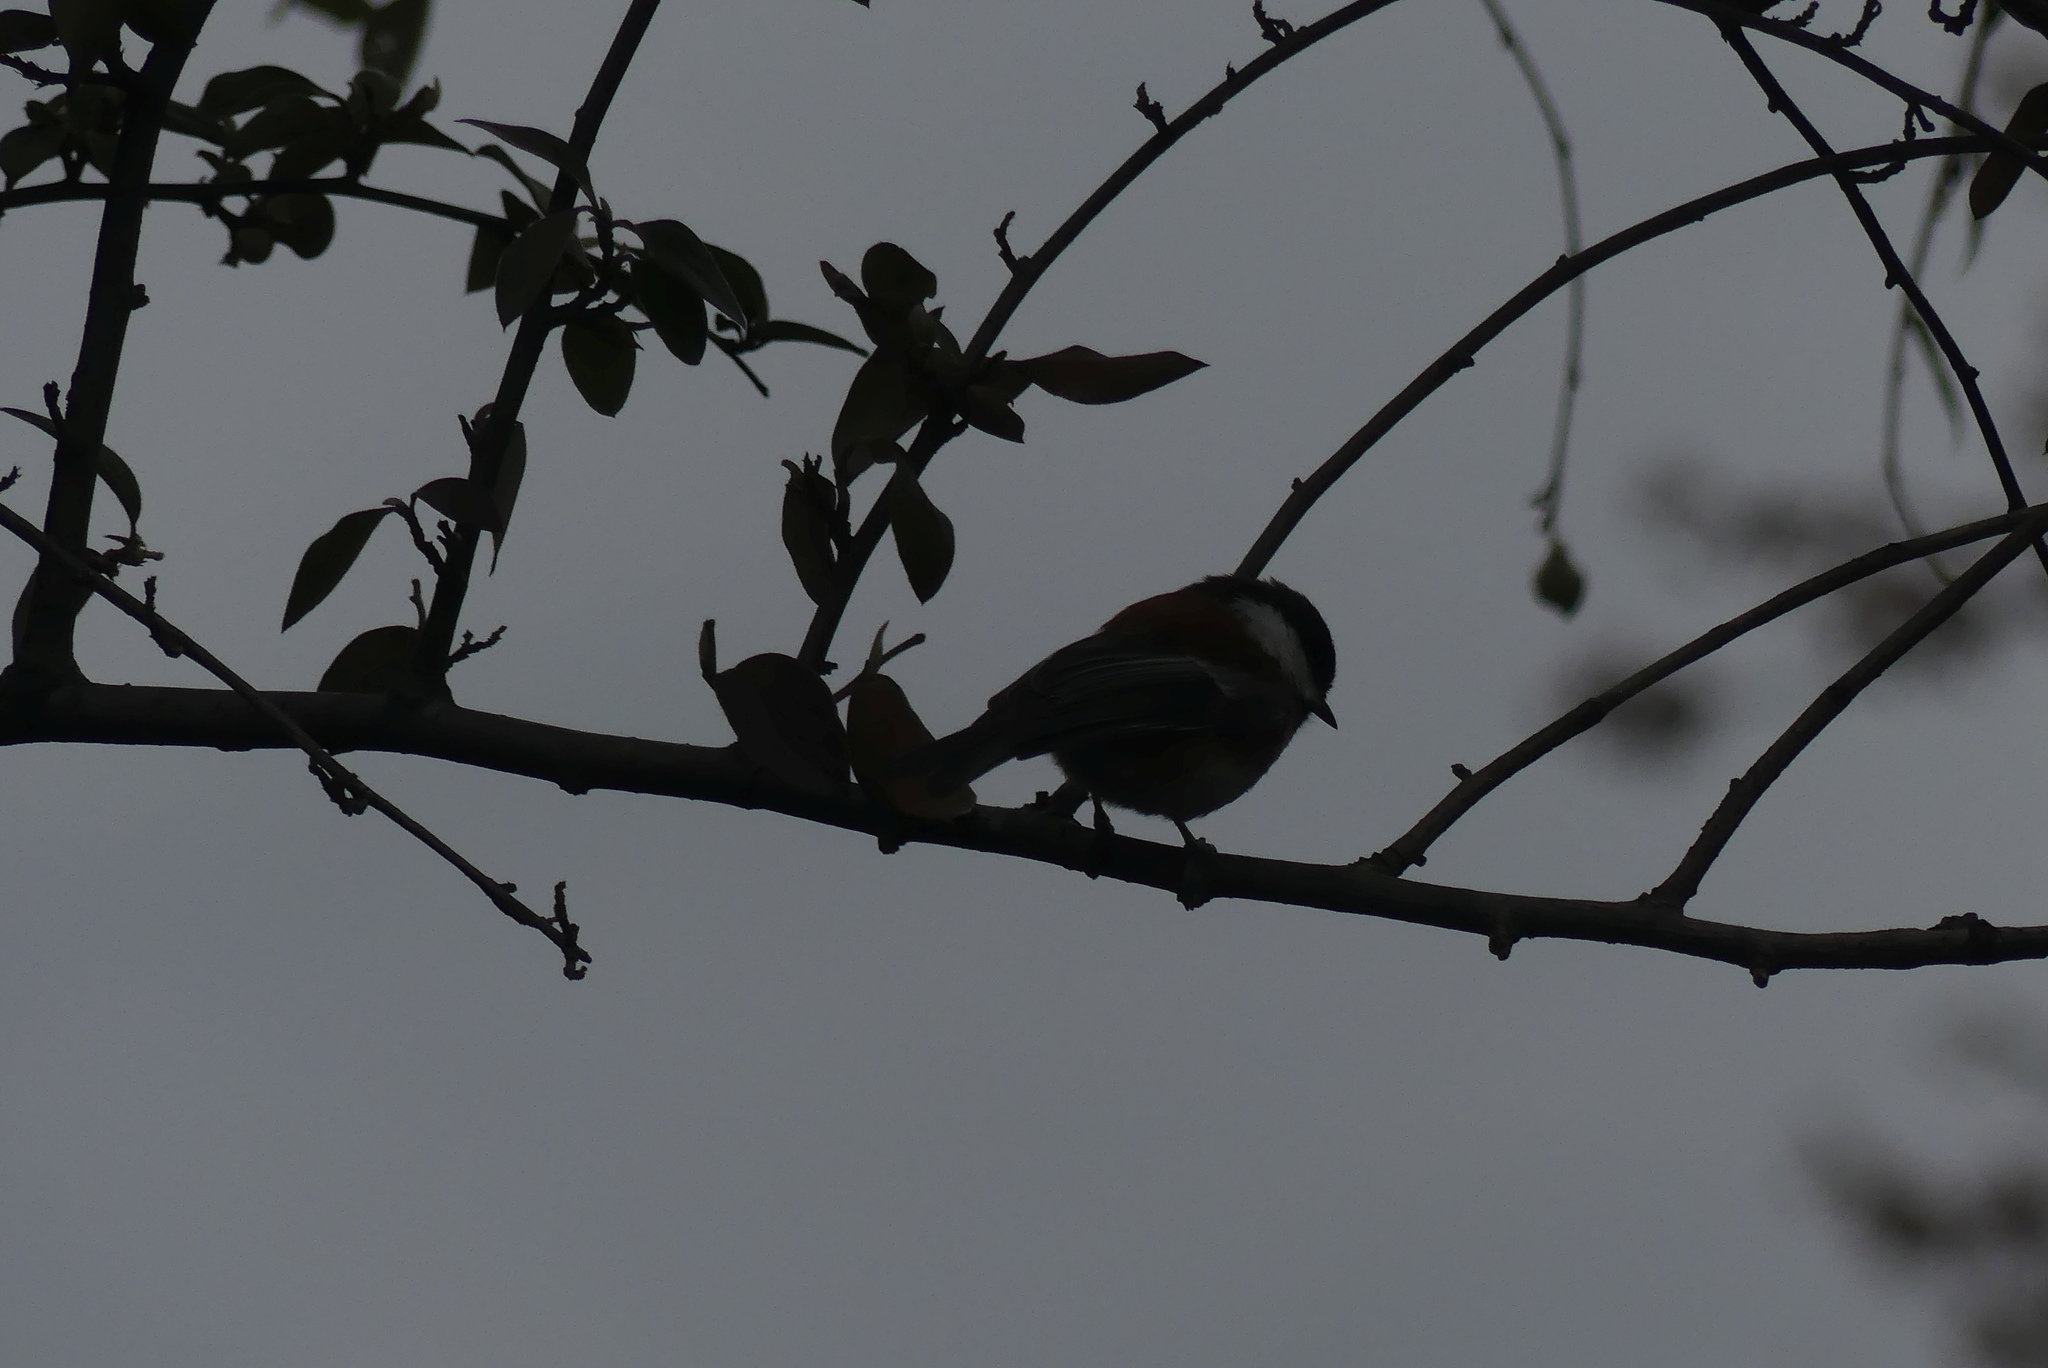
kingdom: Animalia
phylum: Chordata
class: Aves
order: Passeriformes
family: Paridae
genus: Poecile
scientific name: Poecile rufescens
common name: Chestnut-backed chickadee
